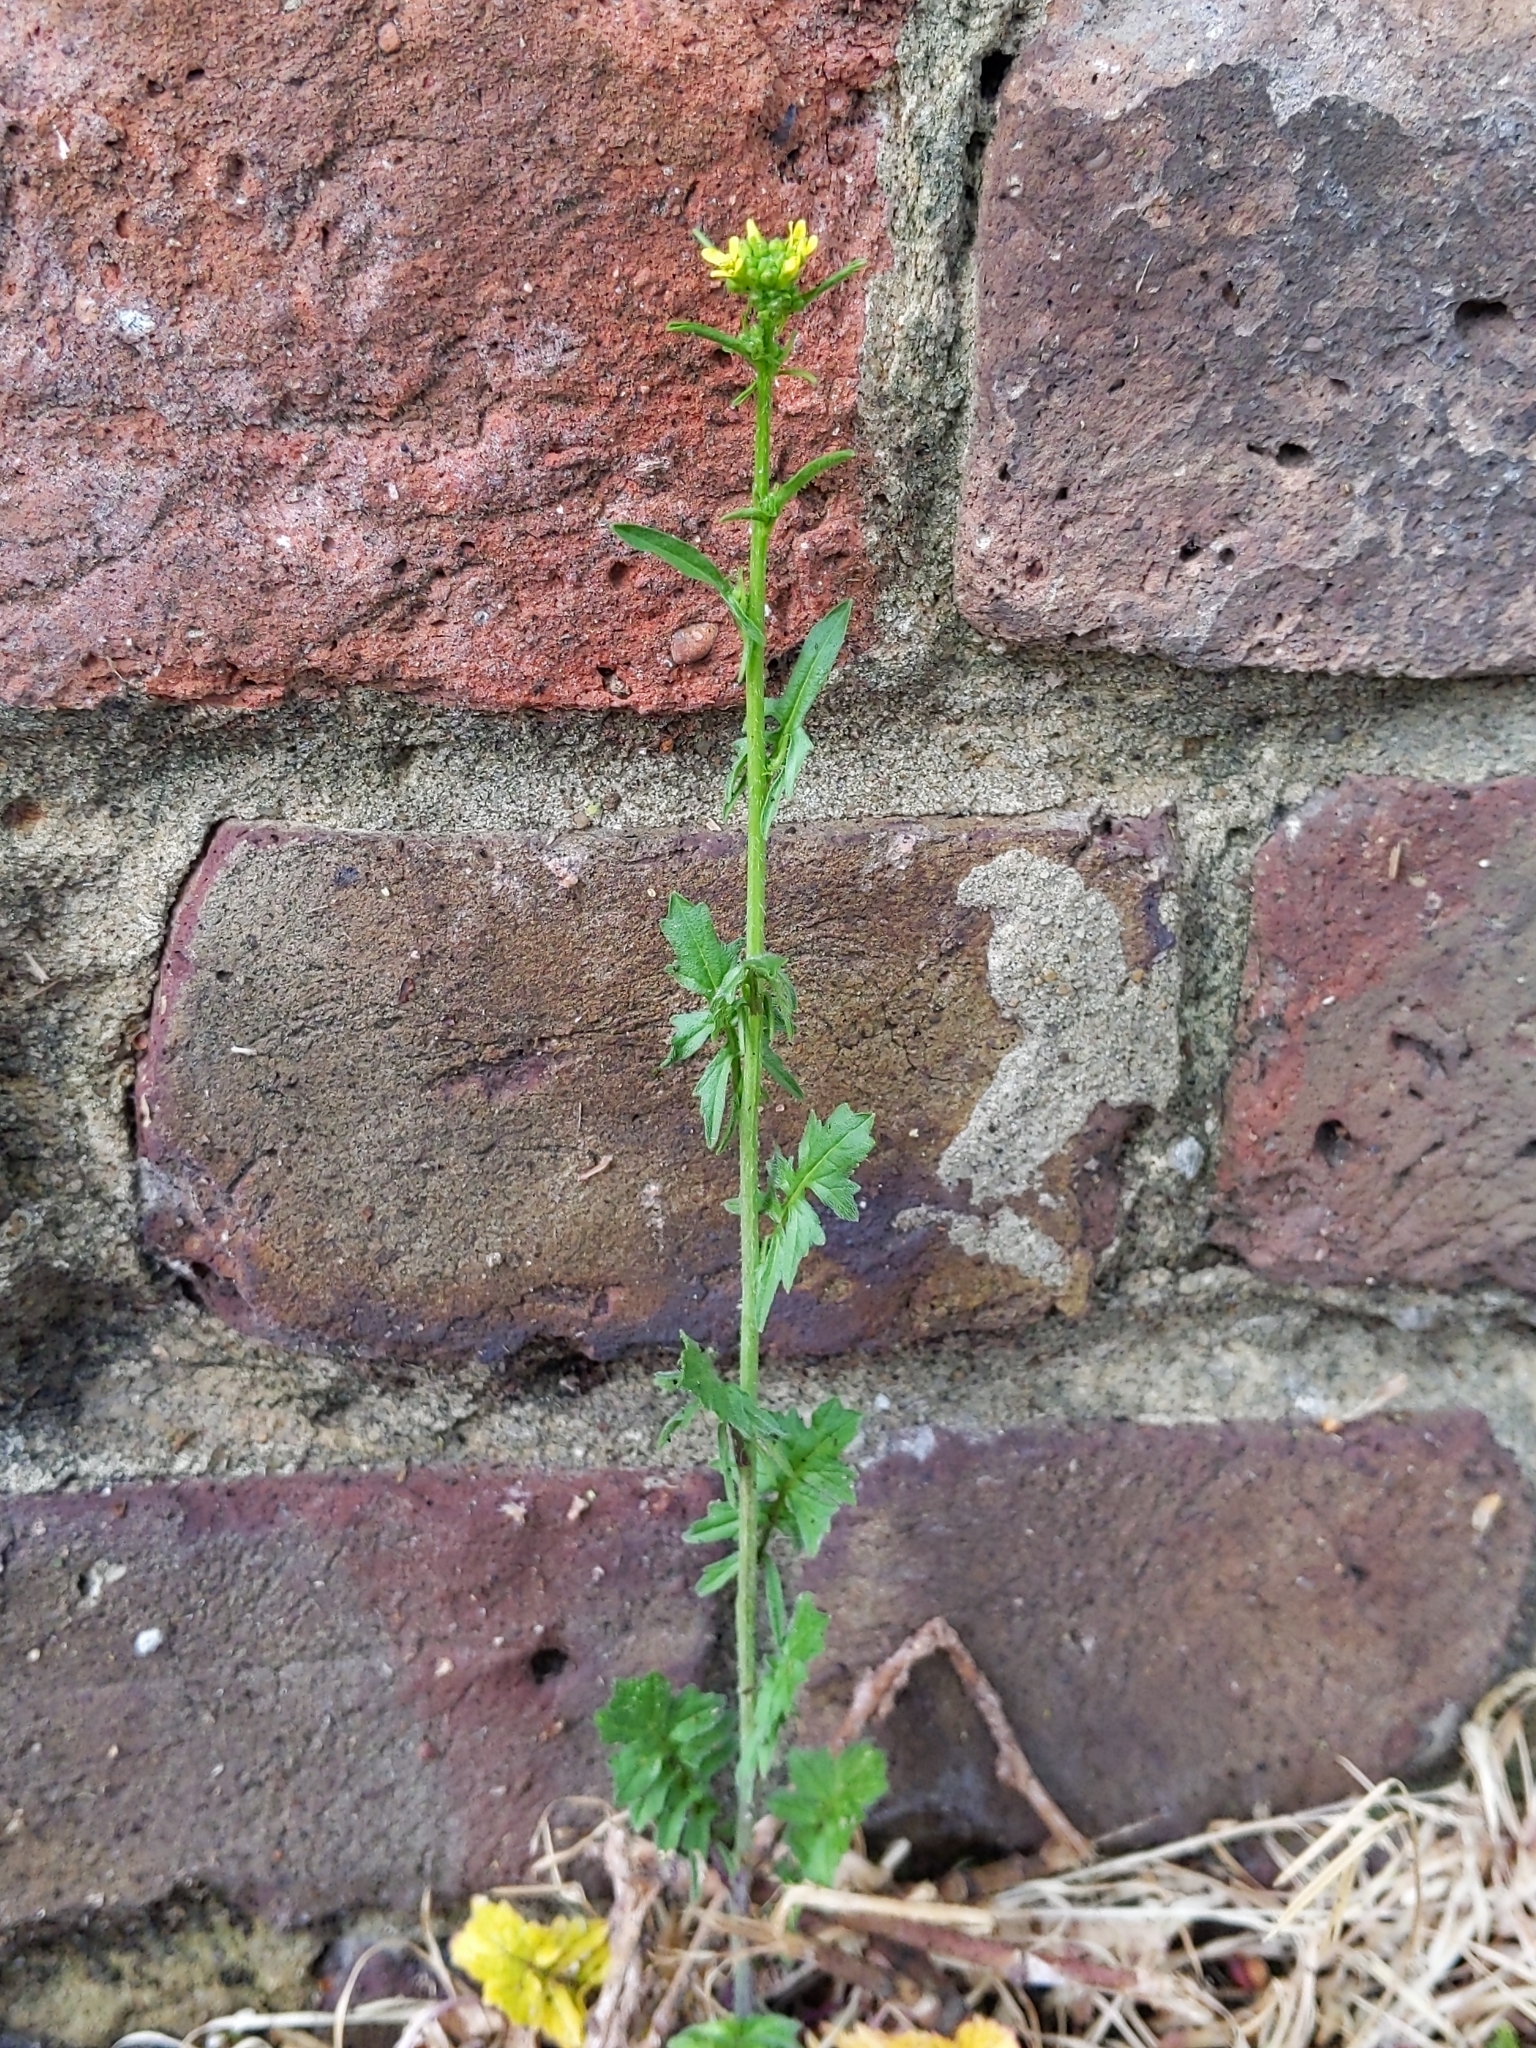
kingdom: Plantae
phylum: Tracheophyta
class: Magnoliopsida
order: Brassicales
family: Brassicaceae
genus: Sisymbrium
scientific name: Sisymbrium officinale
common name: Hedge mustard
